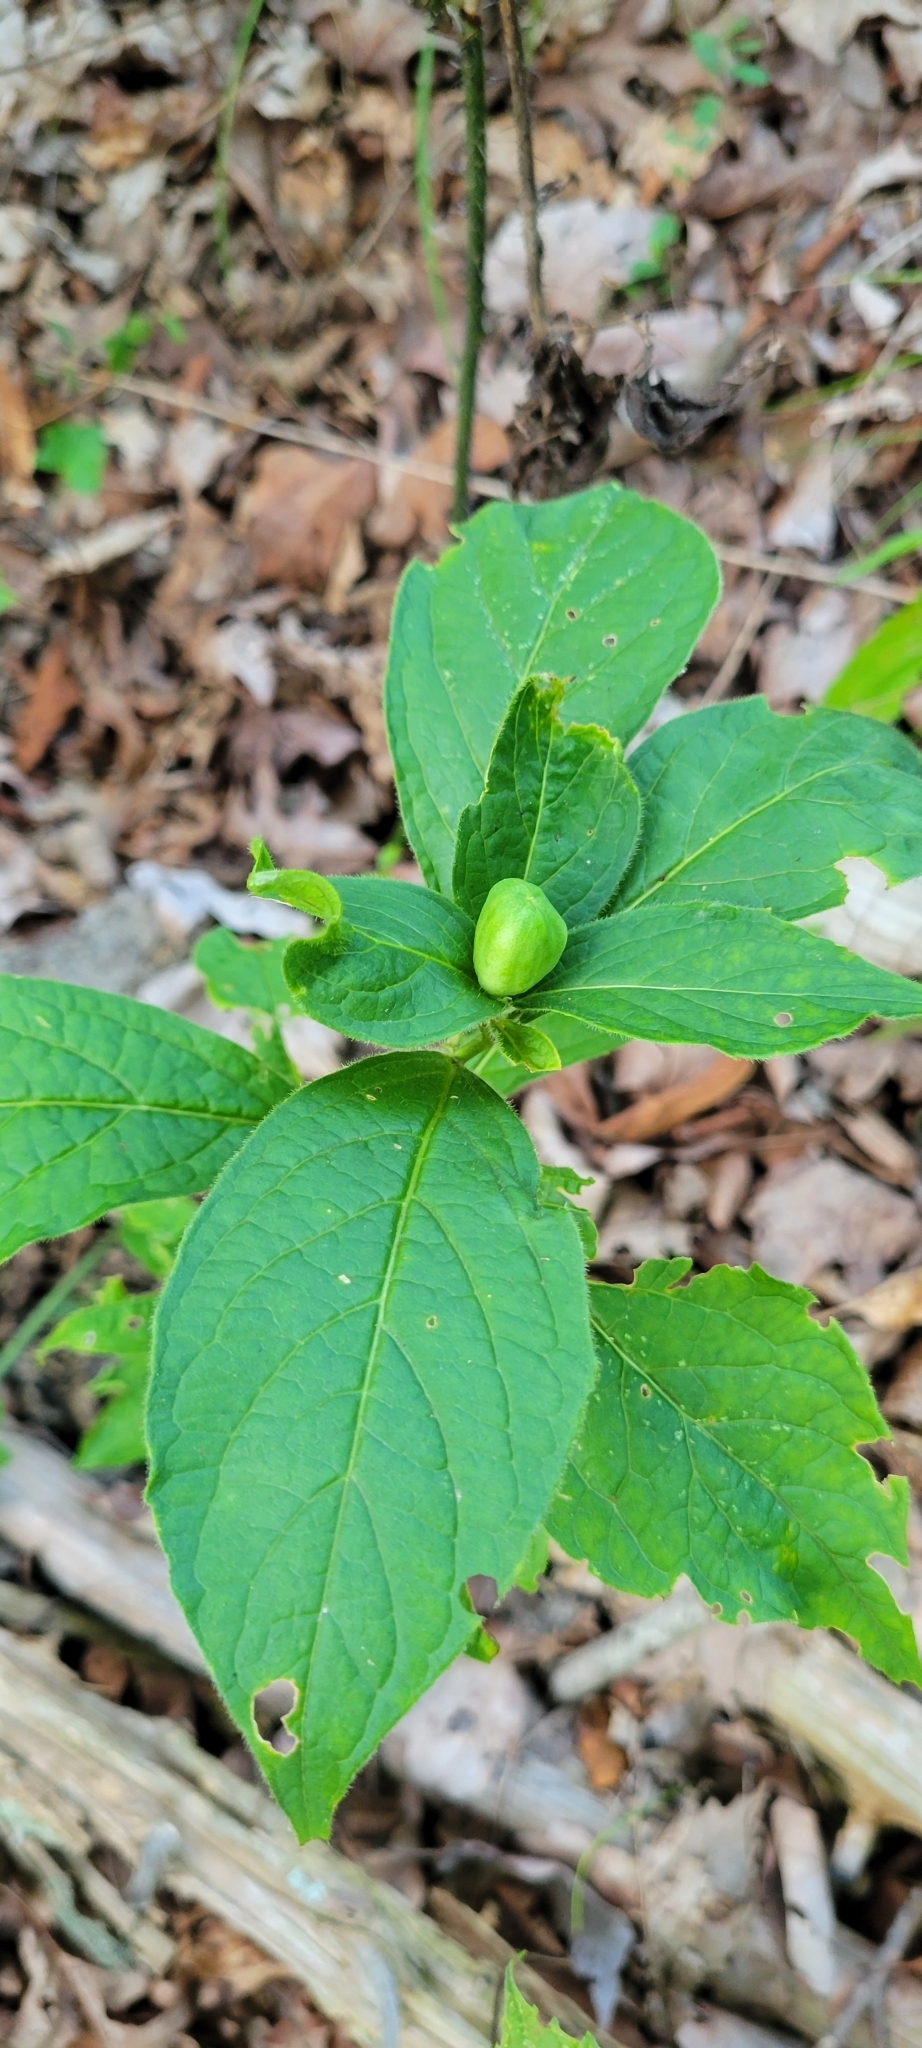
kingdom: Plantae
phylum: Tracheophyta
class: Magnoliopsida
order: Malpighiales
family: Violaceae
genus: Cubelium
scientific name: Cubelium concolor
